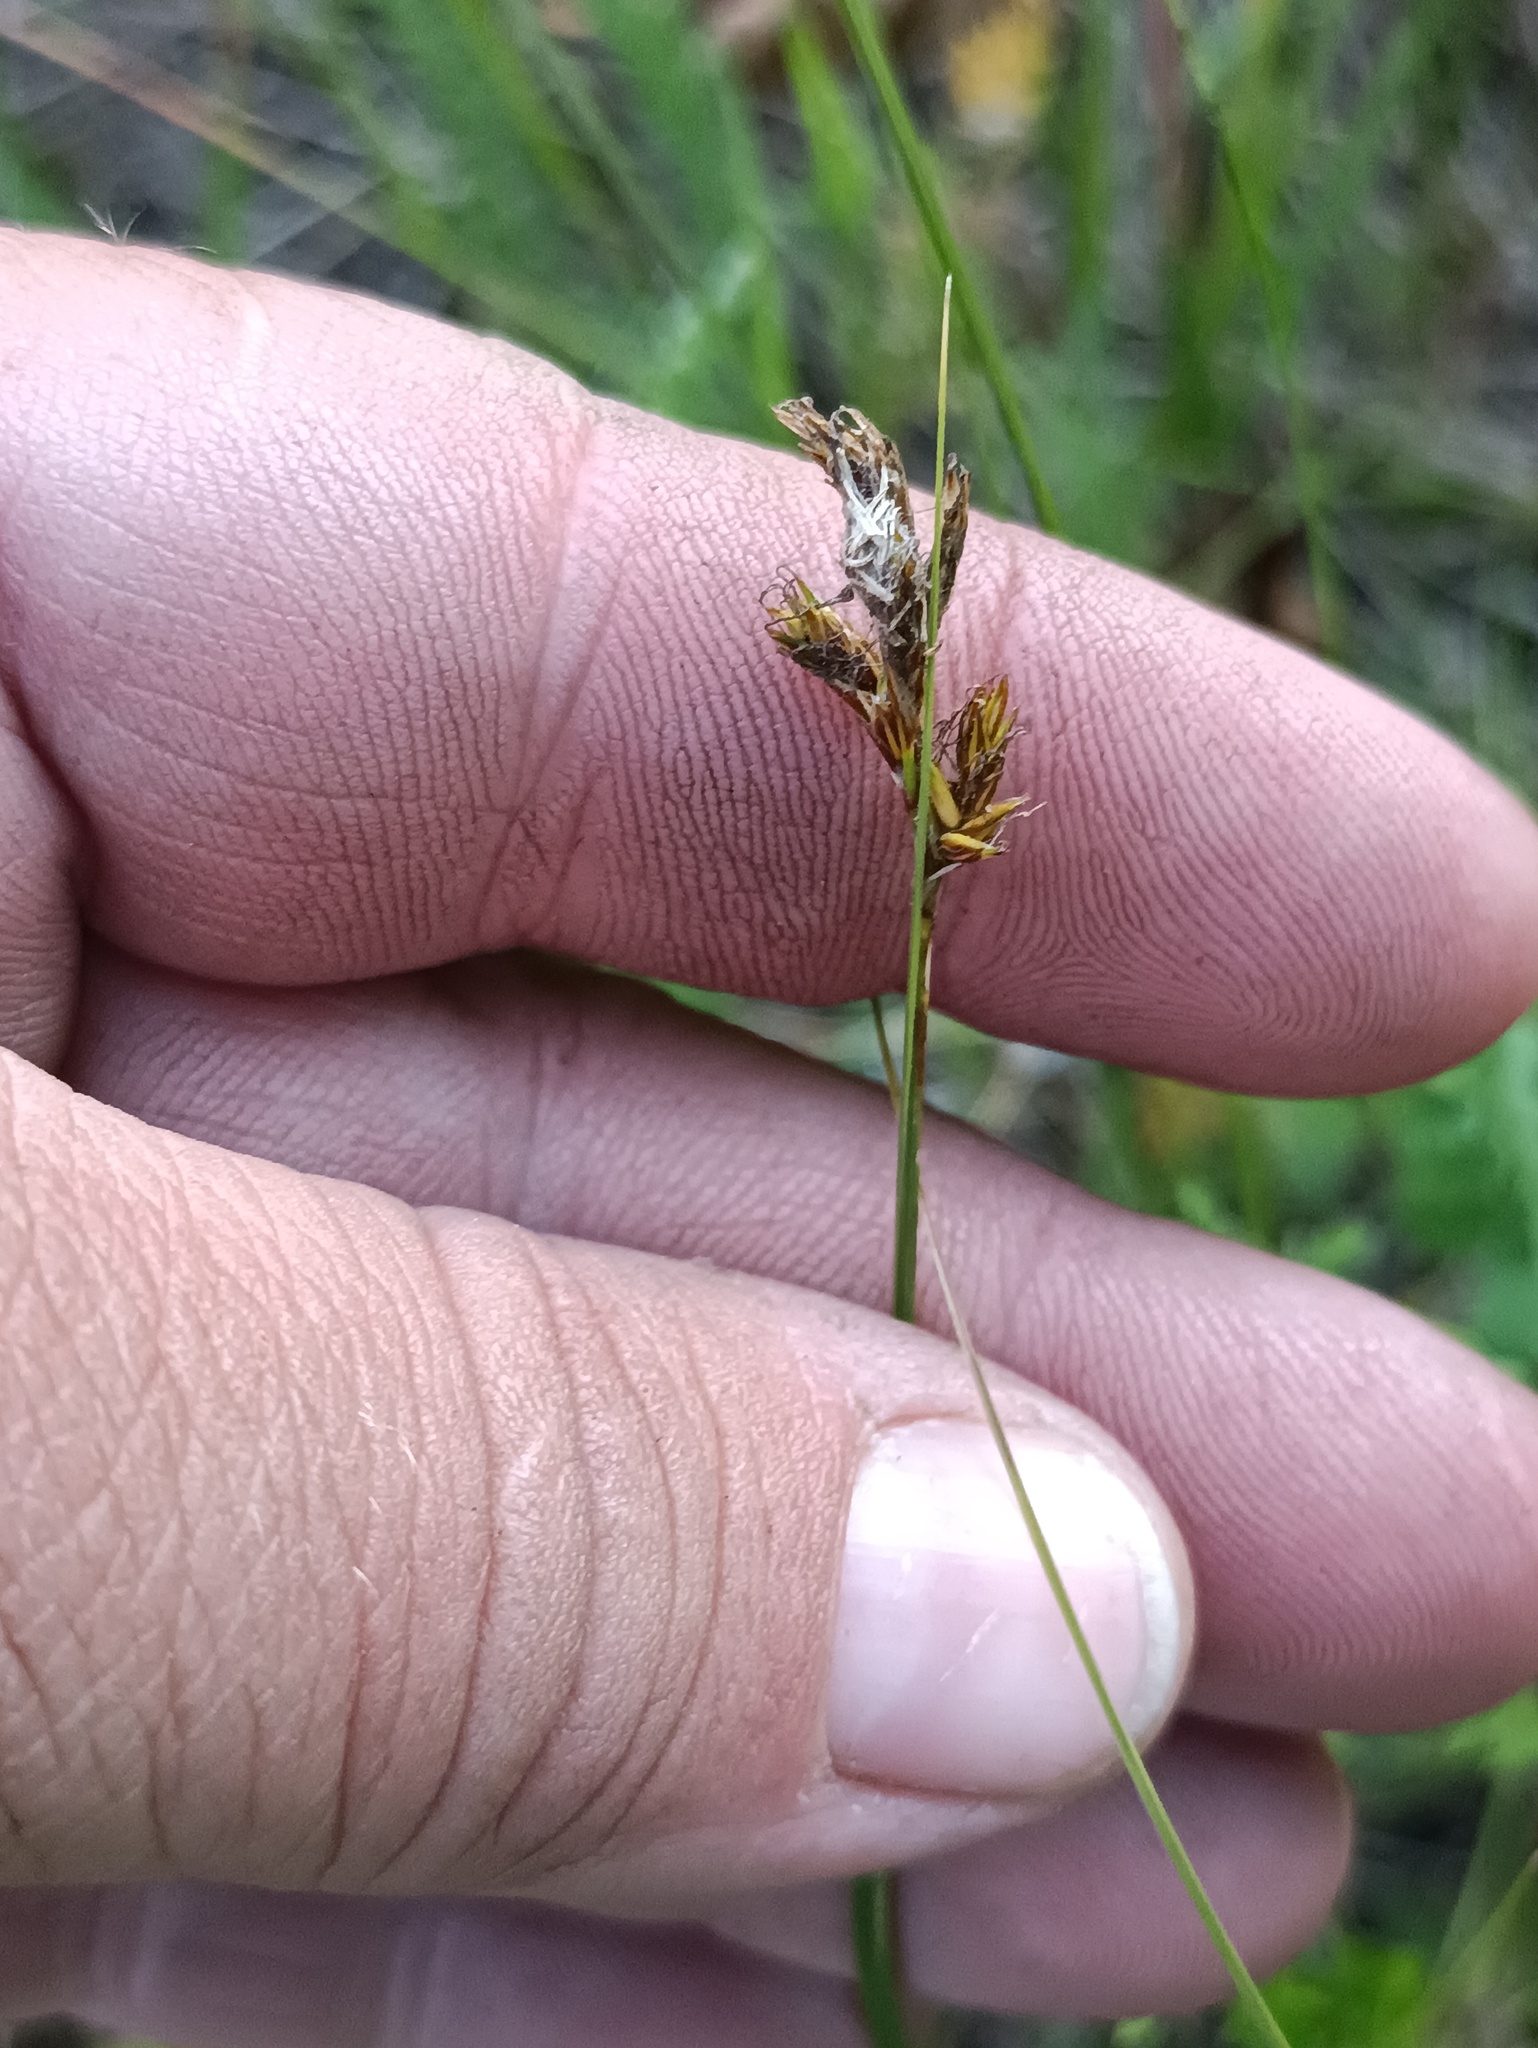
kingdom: Plantae
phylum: Tracheophyta
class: Liliopsida
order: Poales
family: Cyperaceae
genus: Carex
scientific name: Carex praecox
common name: Early sedge
